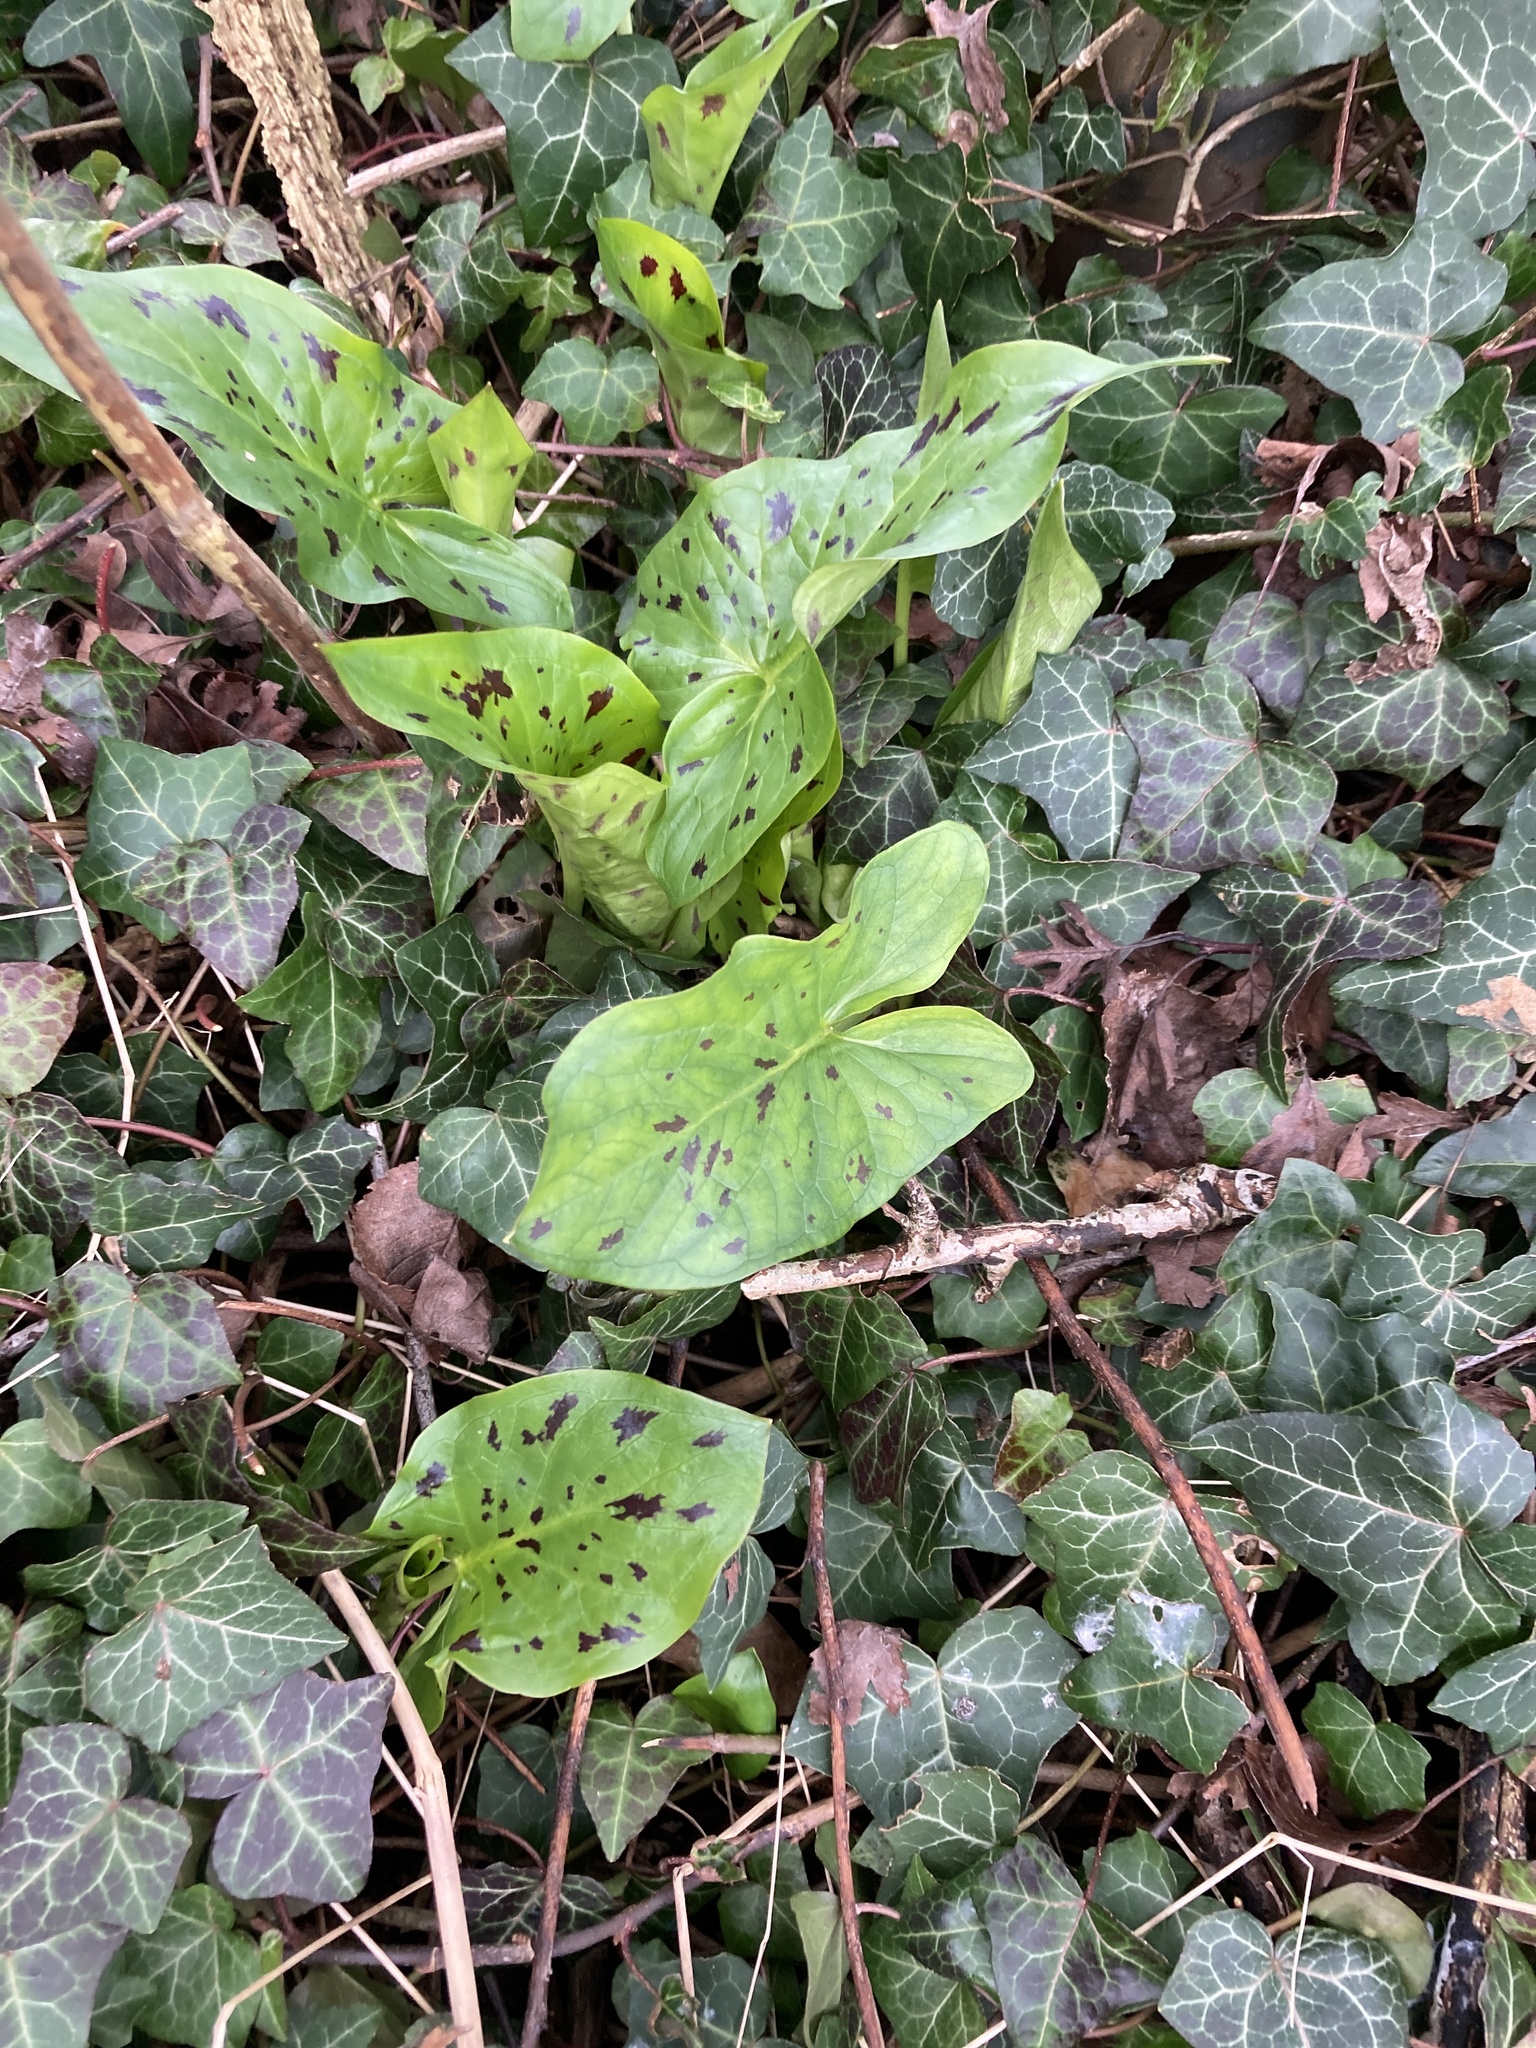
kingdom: Plantae
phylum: Tracheophyta
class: Liliopsida
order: Alismatales
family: Araceae
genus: Arum
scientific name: Arum maculatum
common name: Lords-and-ladies
